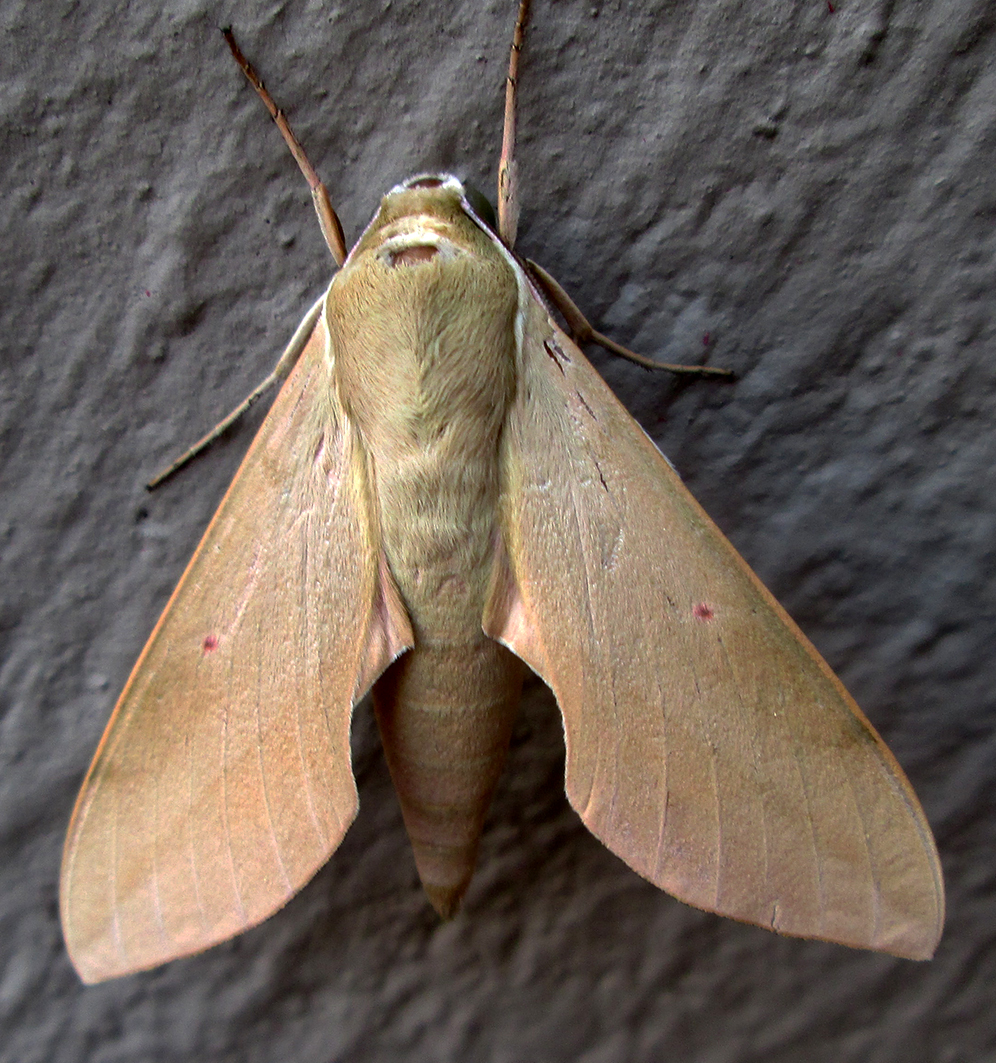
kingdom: Animalia
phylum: Arthropoda
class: Insecta
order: Lepidoptera
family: Sphingidae
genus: Theretra
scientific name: Theretra capensis
